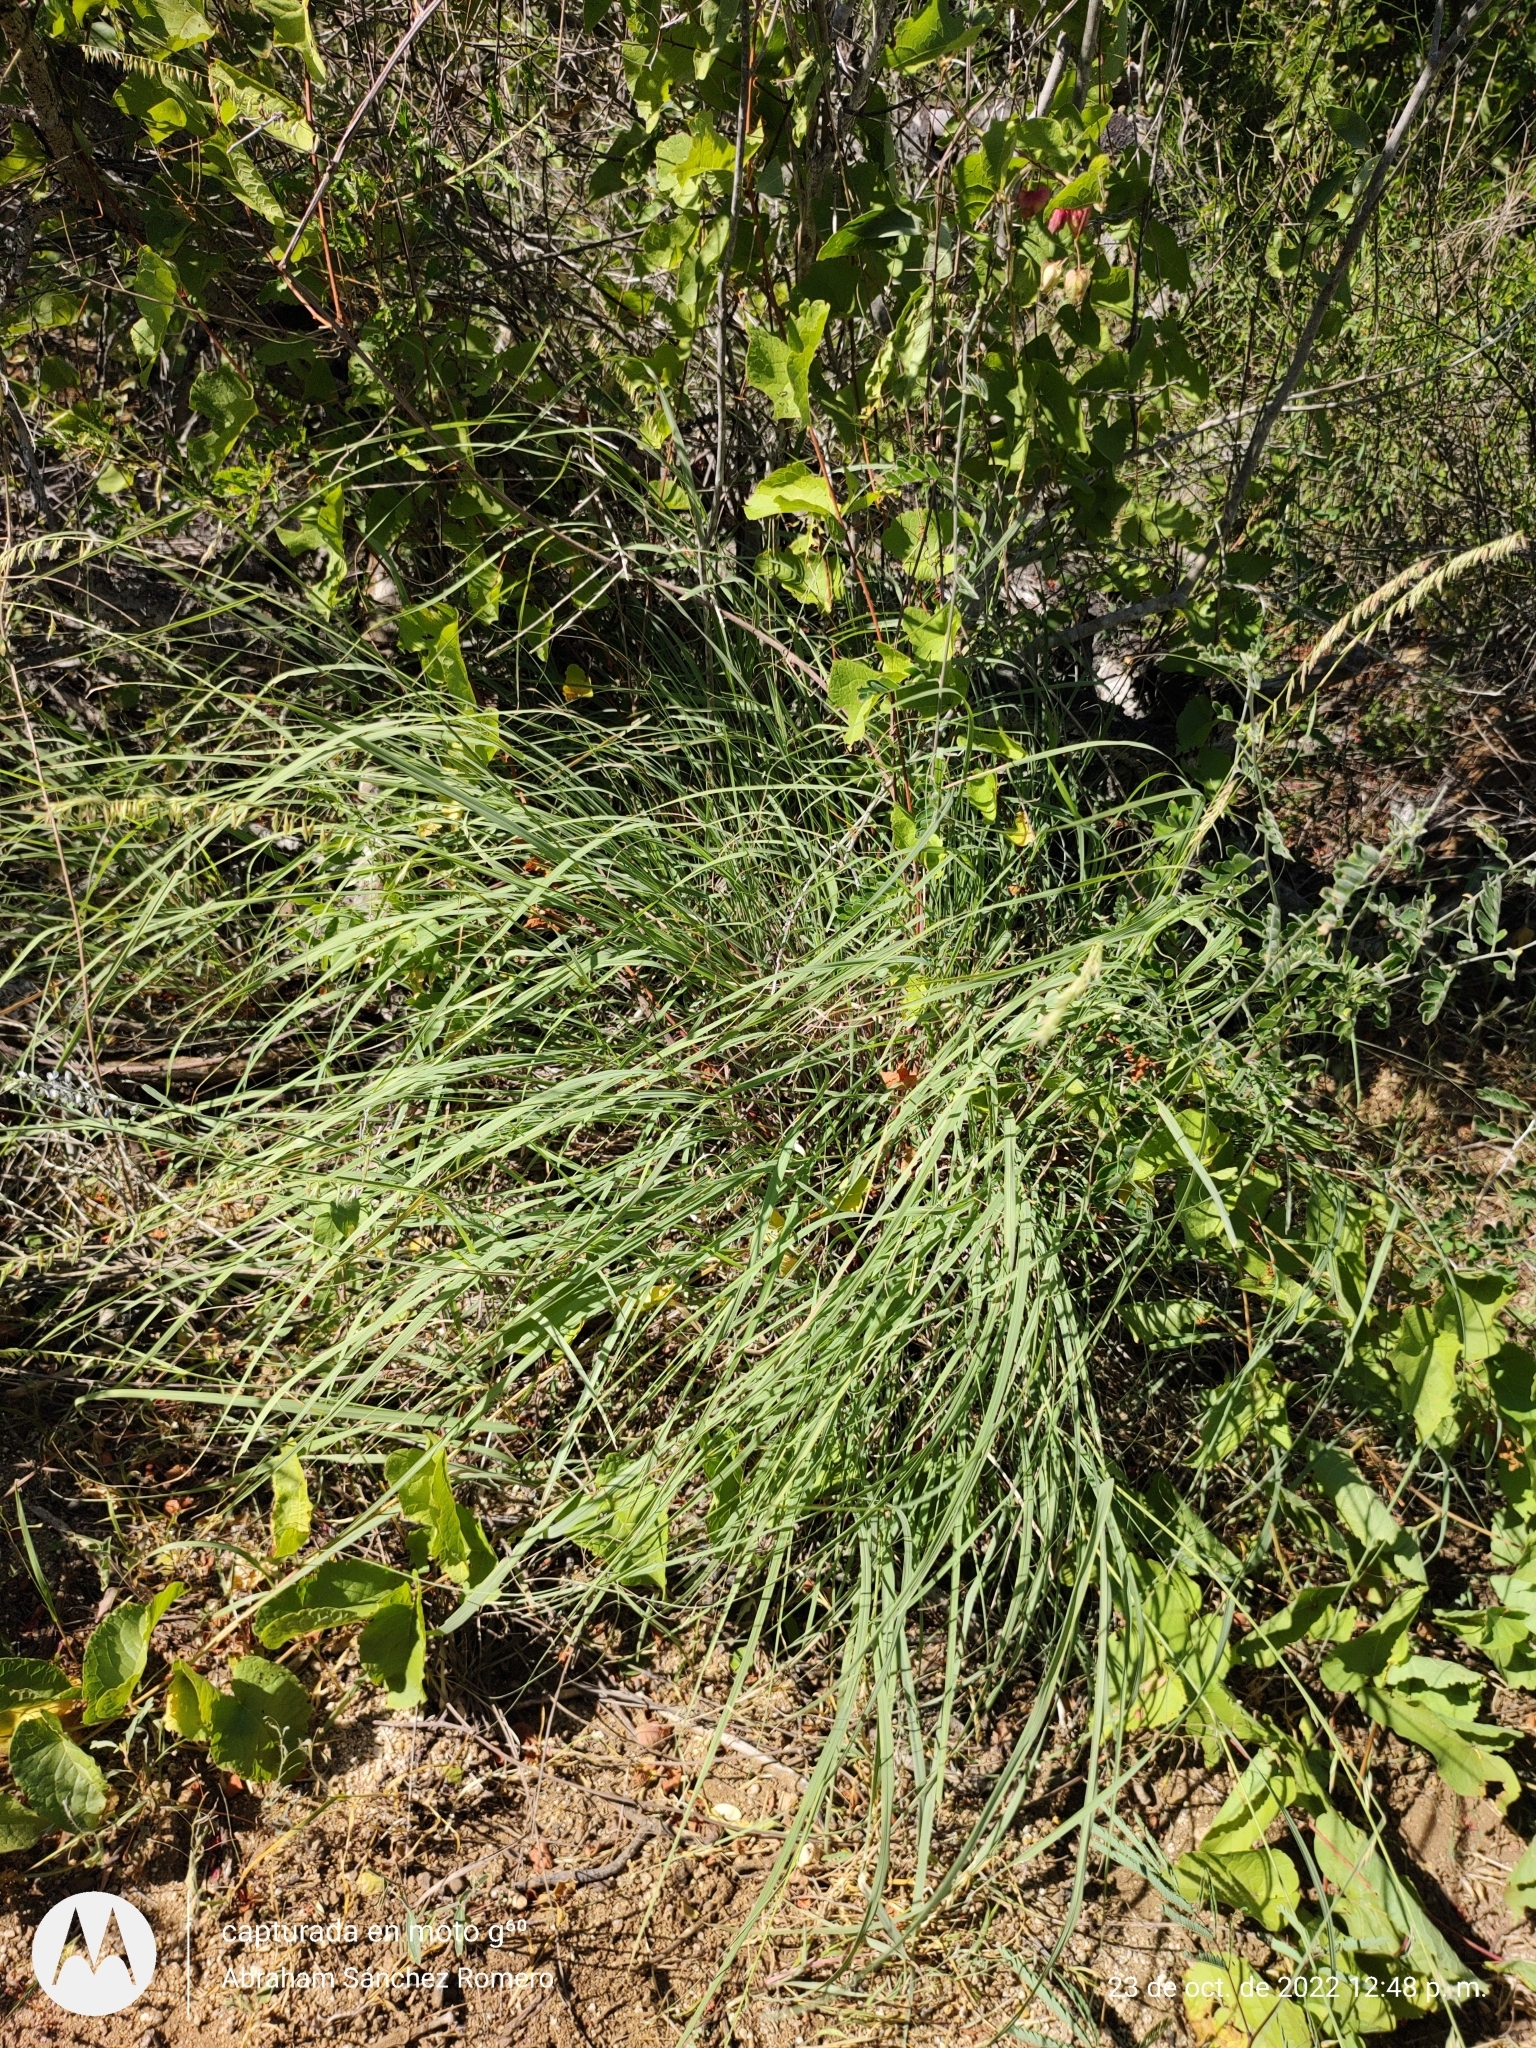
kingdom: Plantae
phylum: Tracheophyta
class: Liliopsida
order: Poales
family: Poaceae
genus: Bouteloua
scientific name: Bouteloua reflexa
